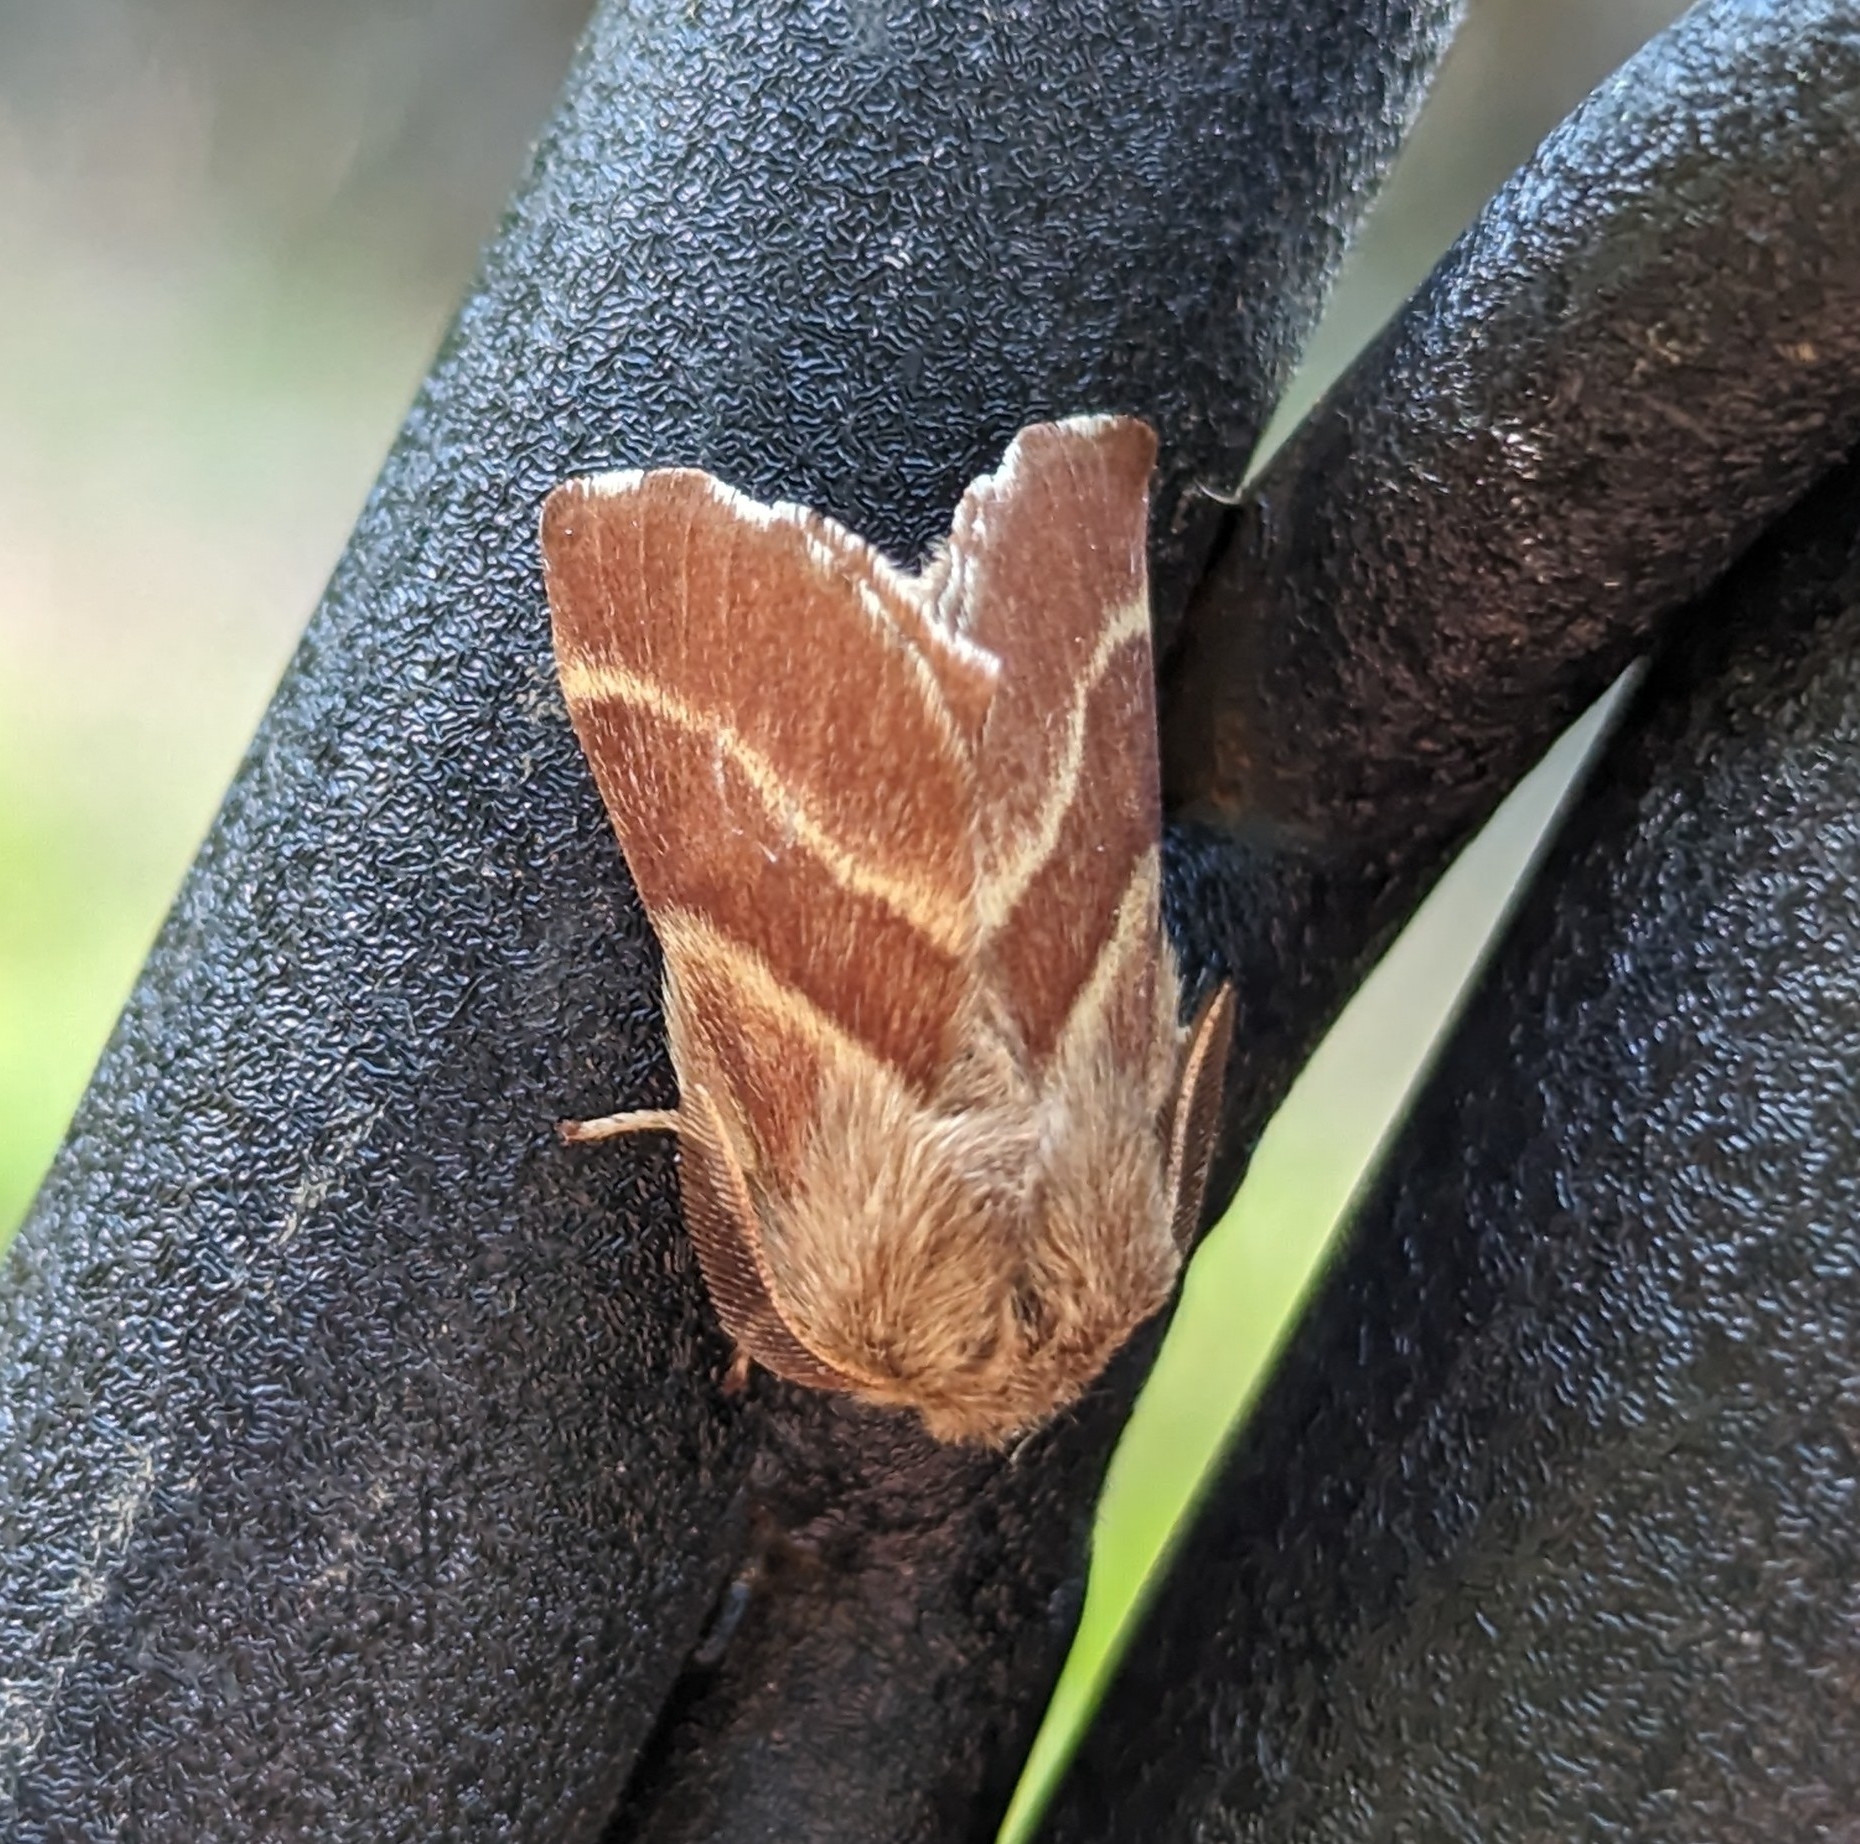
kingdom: Animalia
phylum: Arthropoda
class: Insecta
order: Lepidoptera
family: Lasiocampidae
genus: Malacosoma
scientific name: Malacosoma californica
